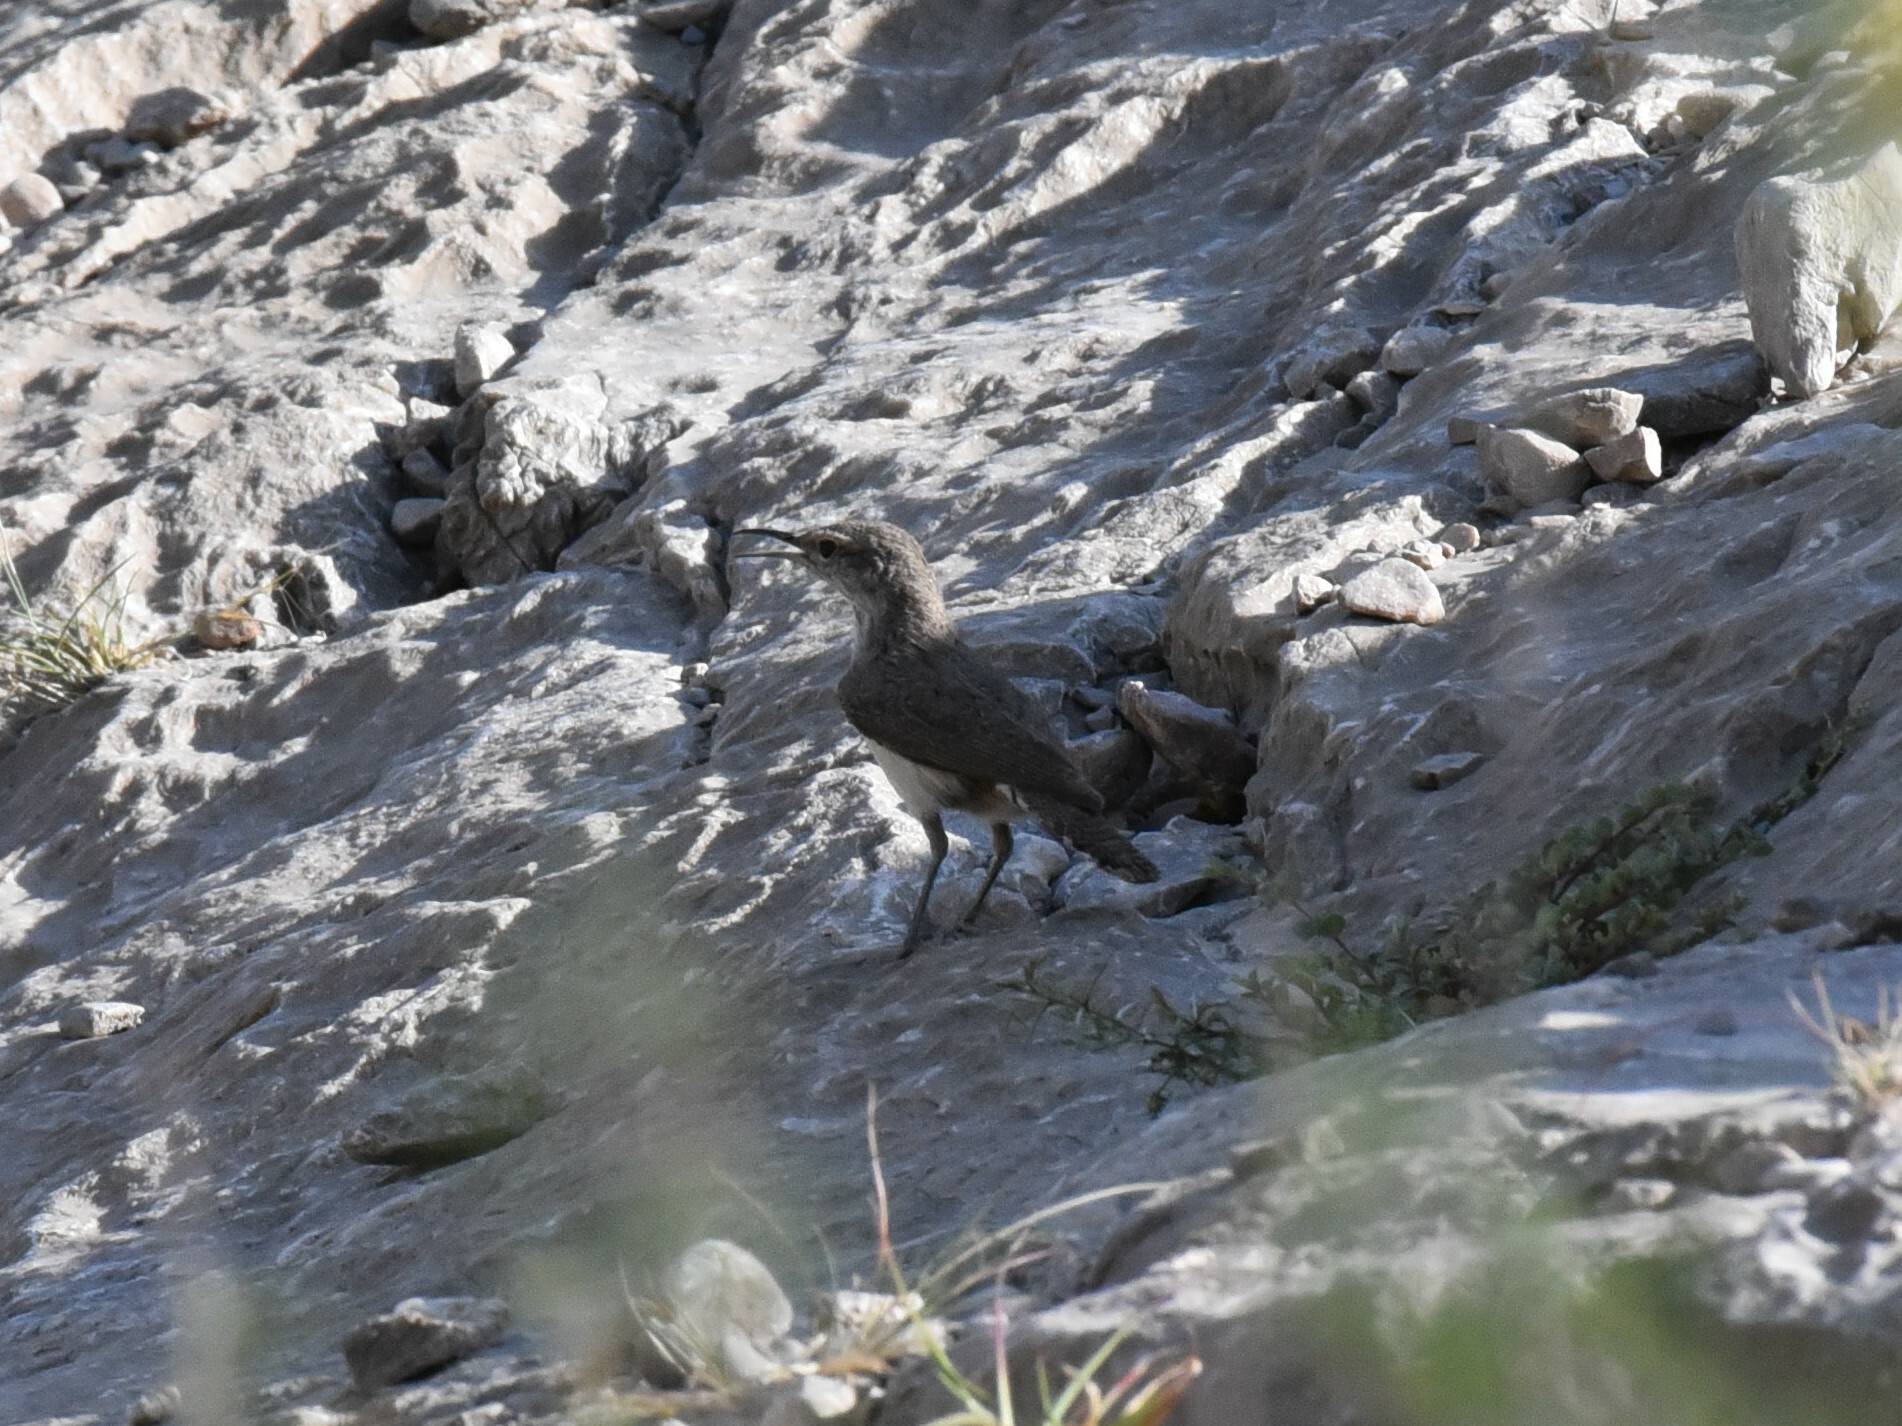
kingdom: Animalia
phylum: Chordata
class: Aves
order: Passeriformes
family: Troglodytidae
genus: Salpinctes
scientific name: Salpinctes obsoletus
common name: Rock wren
